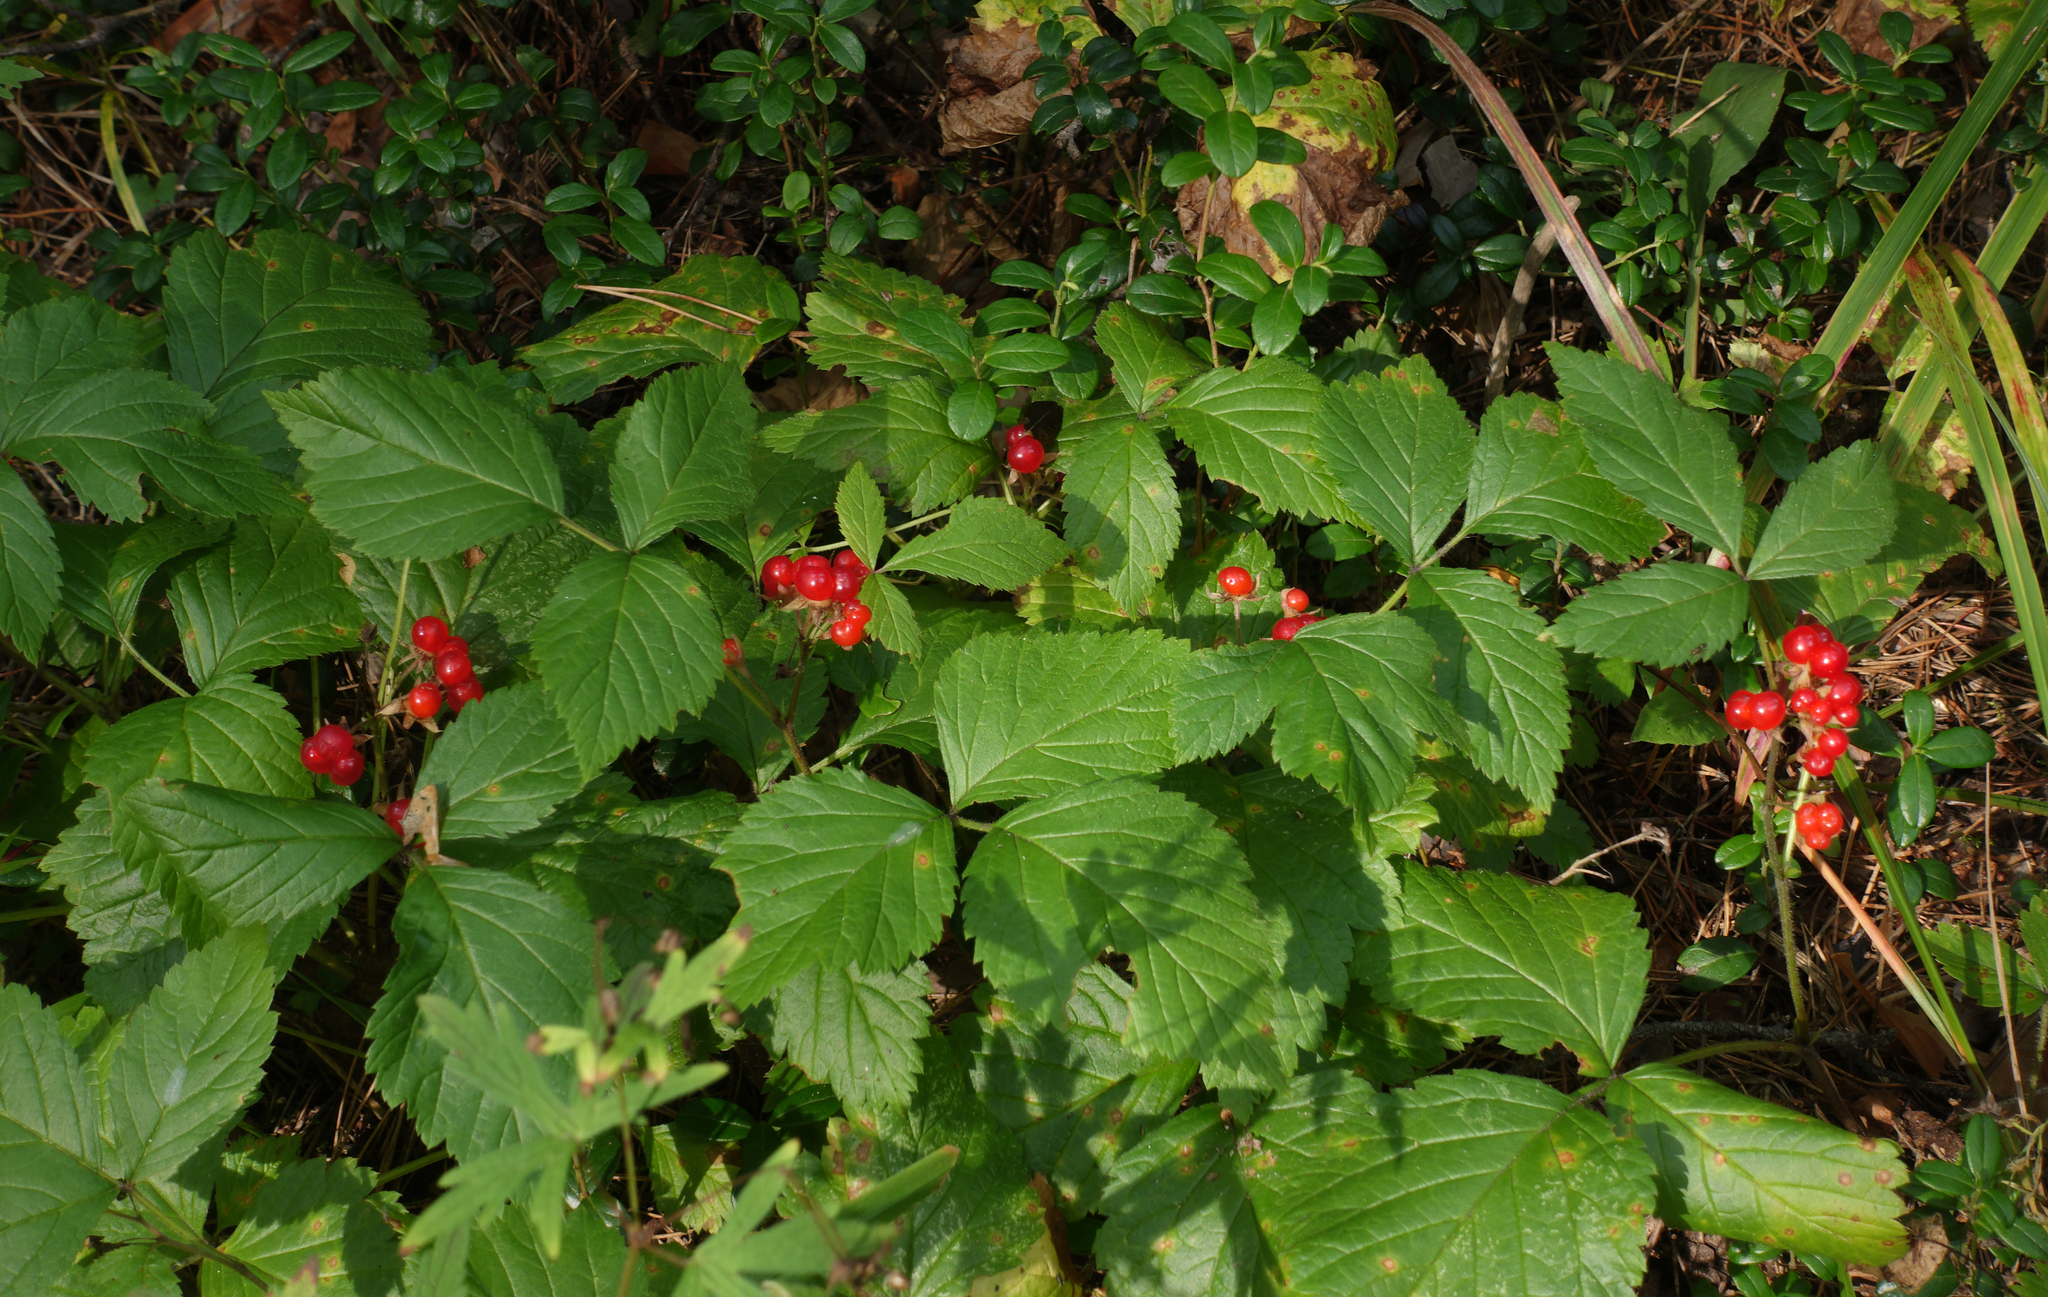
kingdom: Plantae
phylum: Tracheophyta
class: Magnoliopsida
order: Rosales
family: Rosaceae
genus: Rubus
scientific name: Rubus saxatilis
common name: Stone bramble
